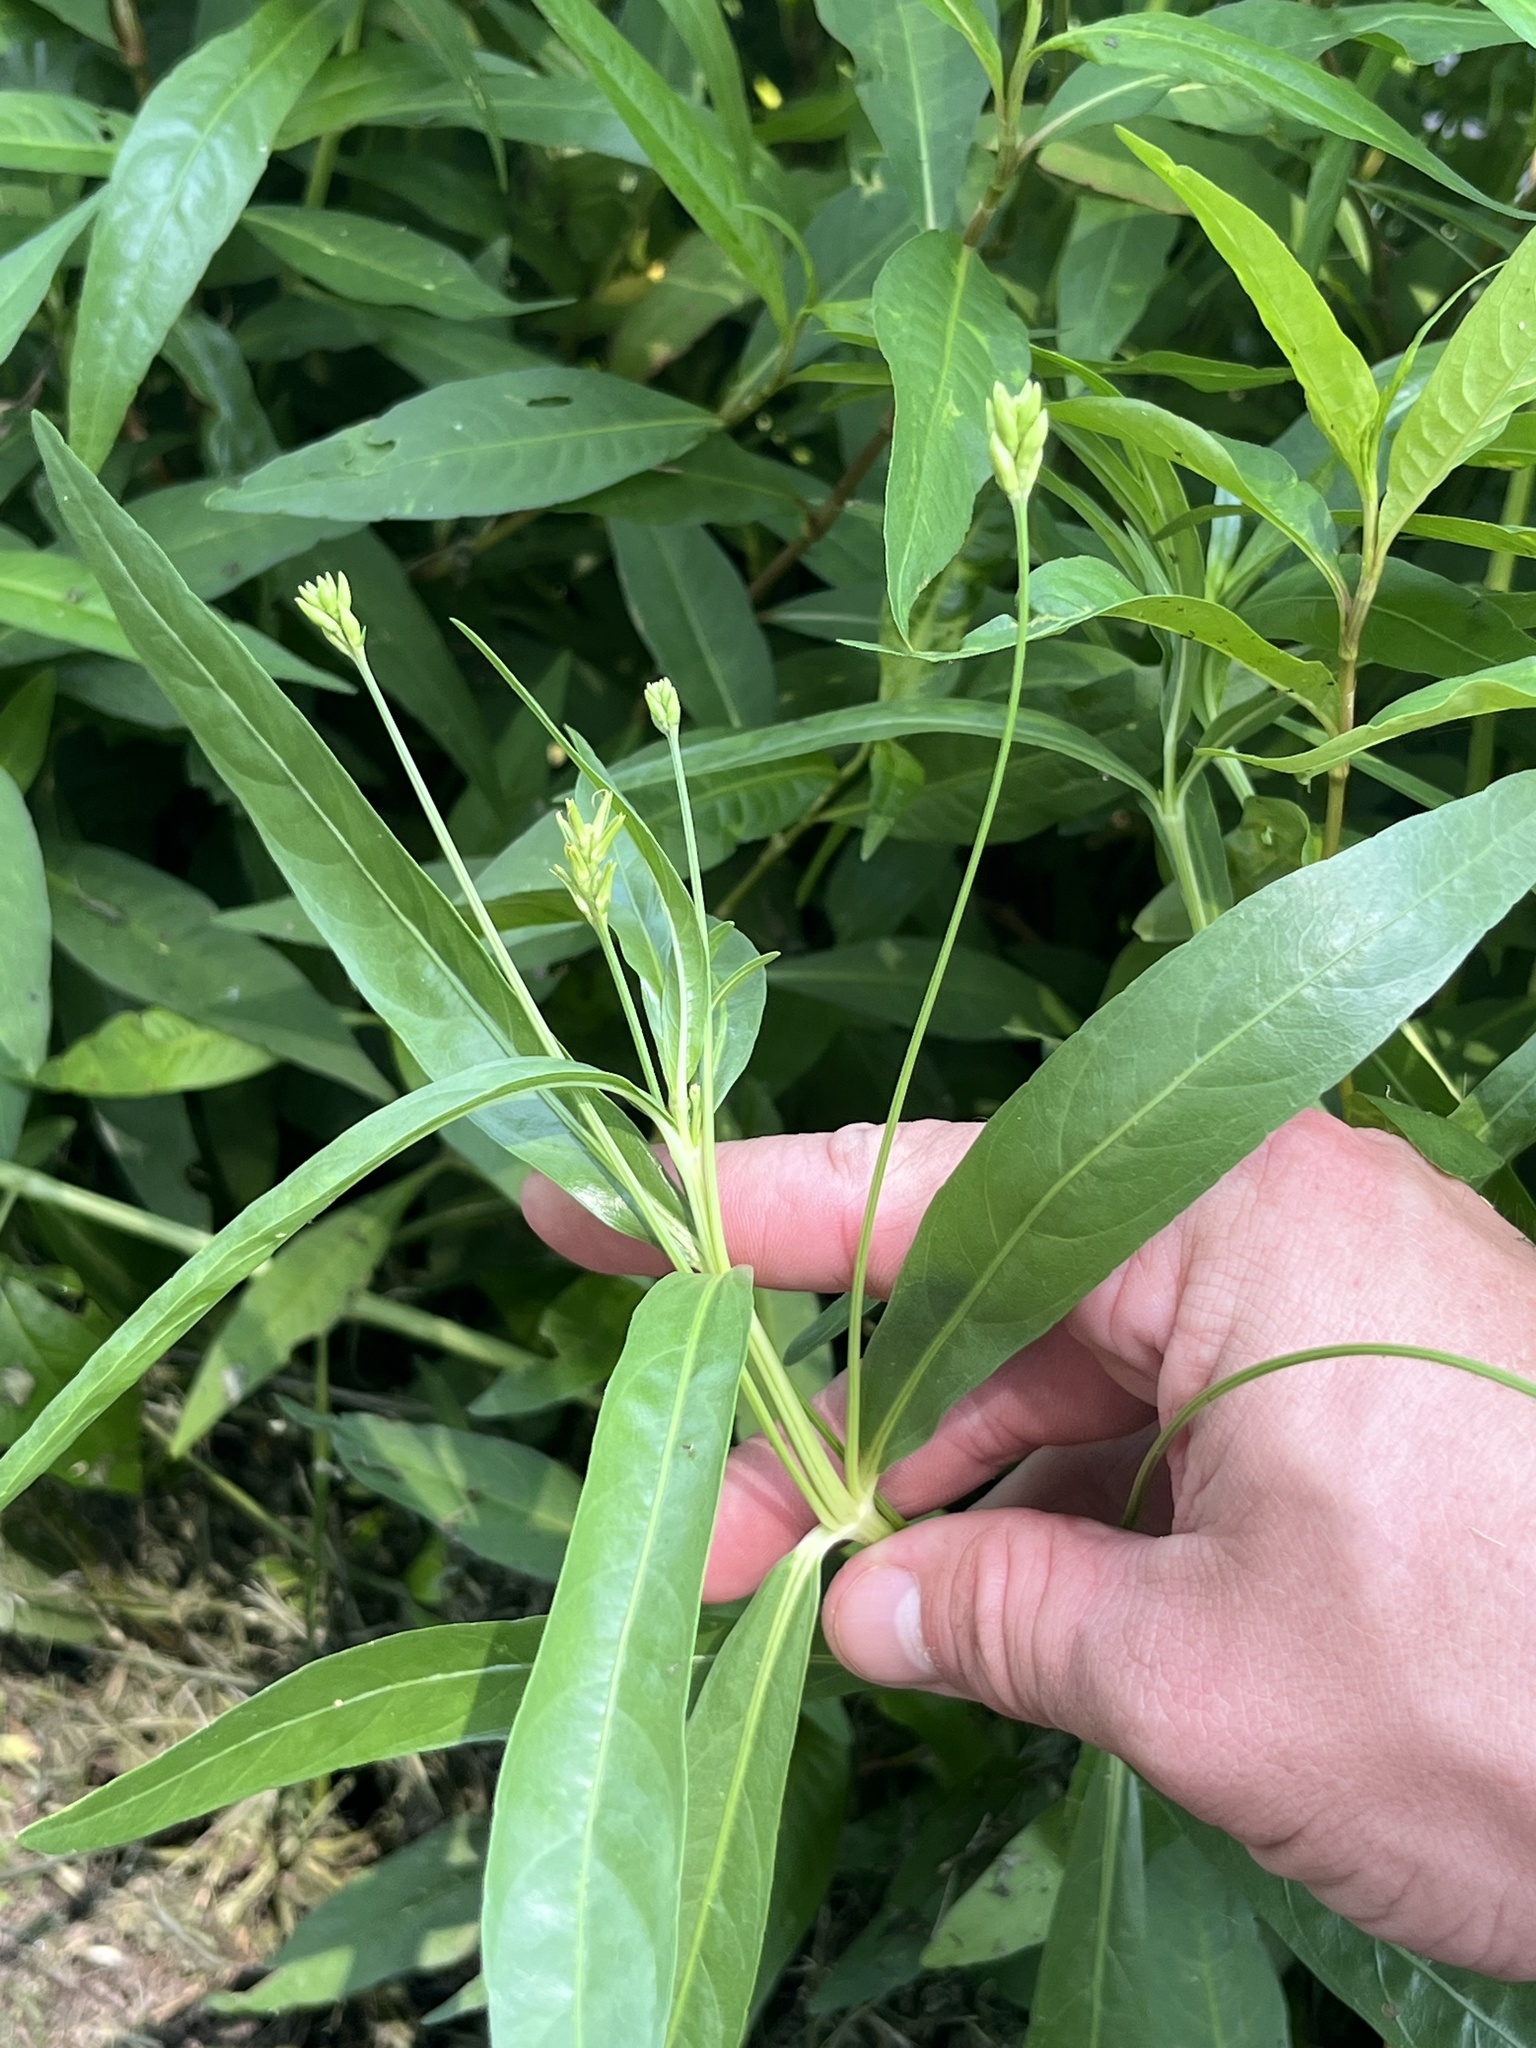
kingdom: Plantae
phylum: Tracheophyta
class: Magnoliopsida
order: Lamiales
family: Acanthaceae
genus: Dianthera
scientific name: Dianthera americana
